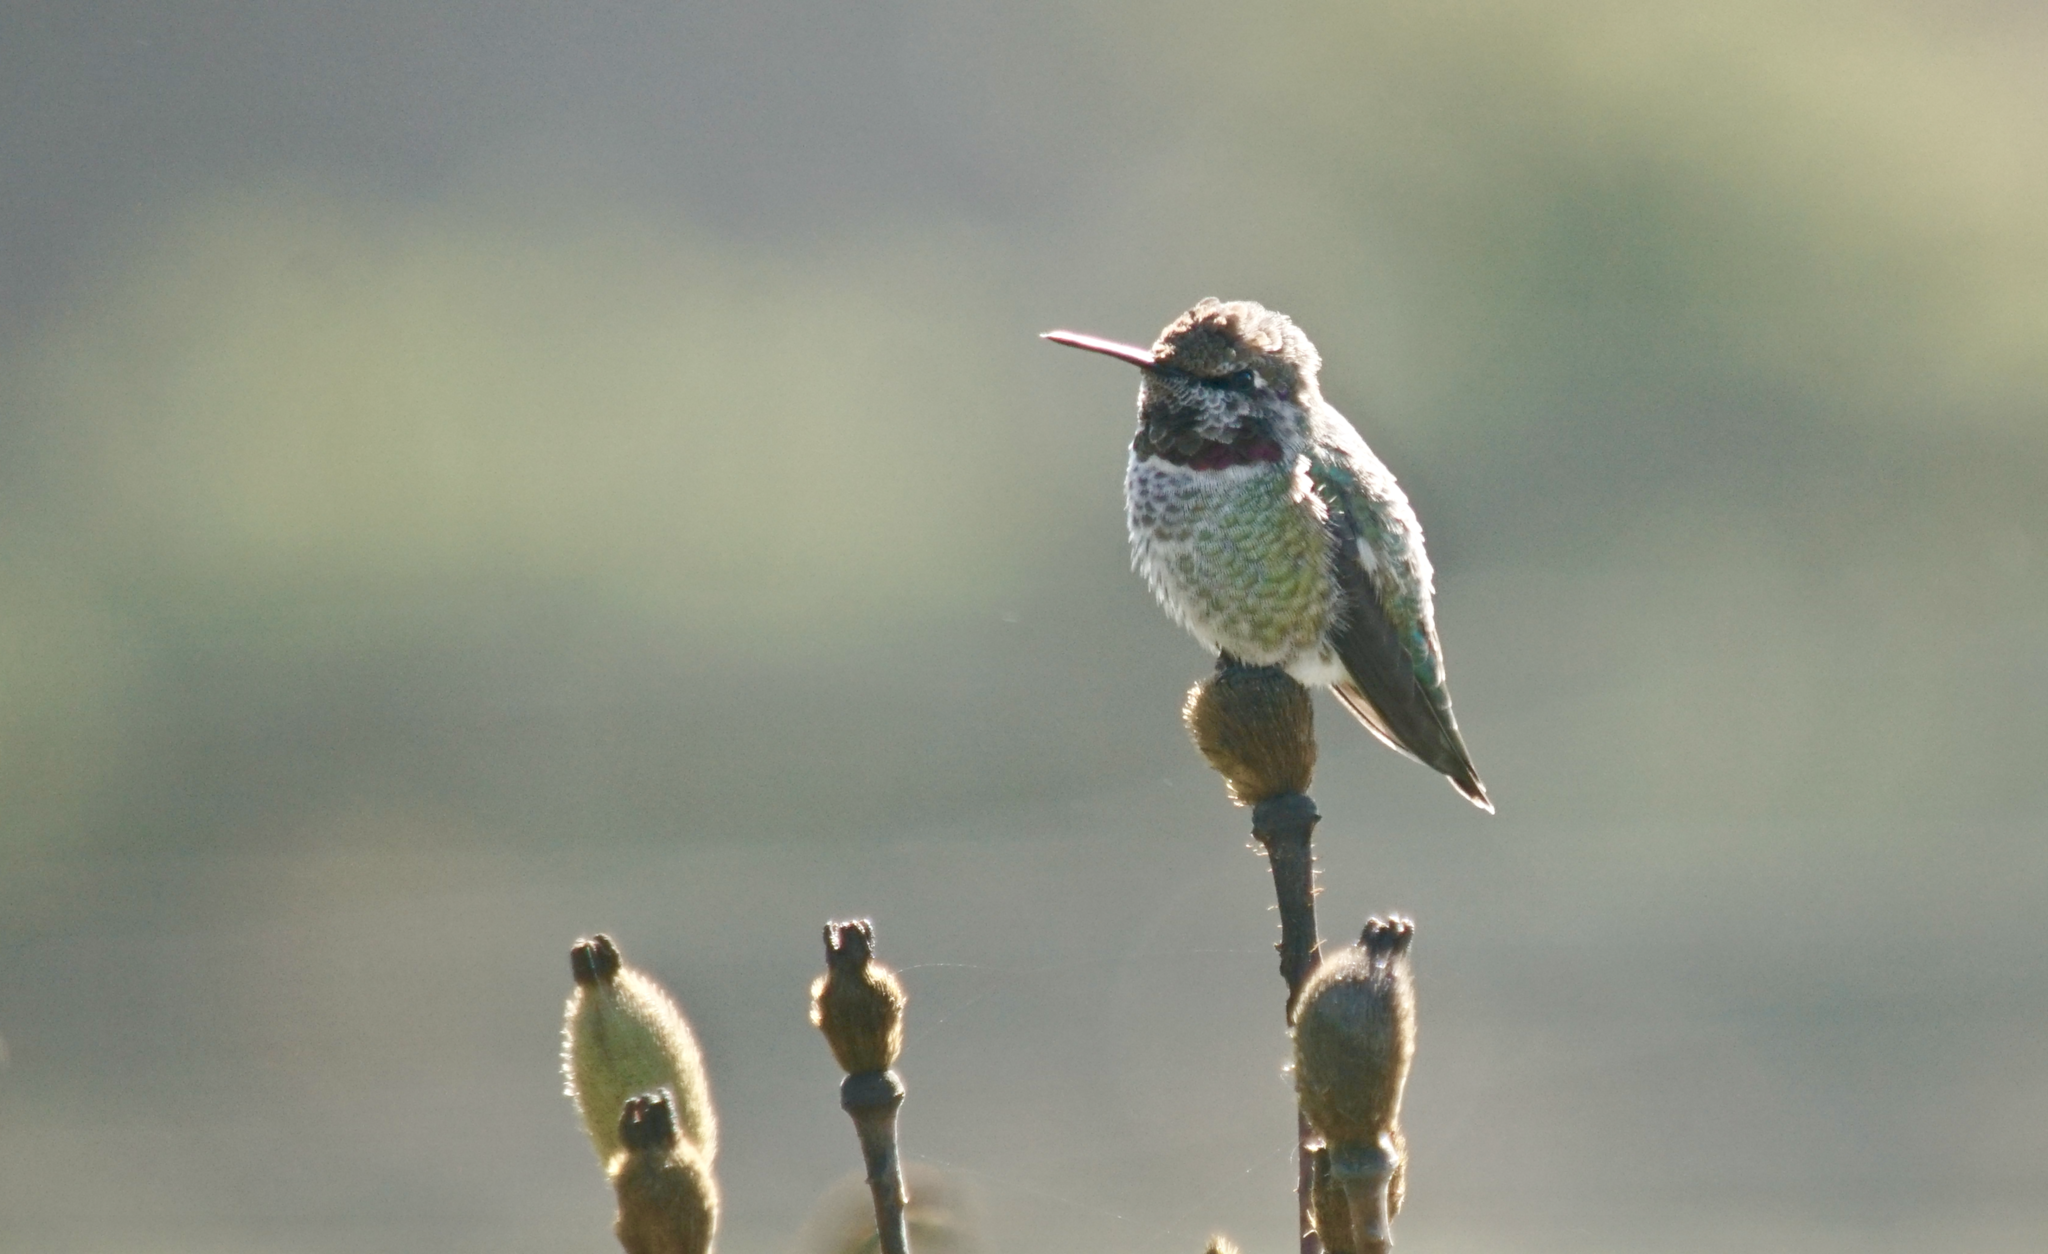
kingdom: Animalia
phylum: Chordata
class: Aves
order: Apodiformes
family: Trochilidae
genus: Calypte
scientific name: Calypte anna
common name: Anna's hummingbird
